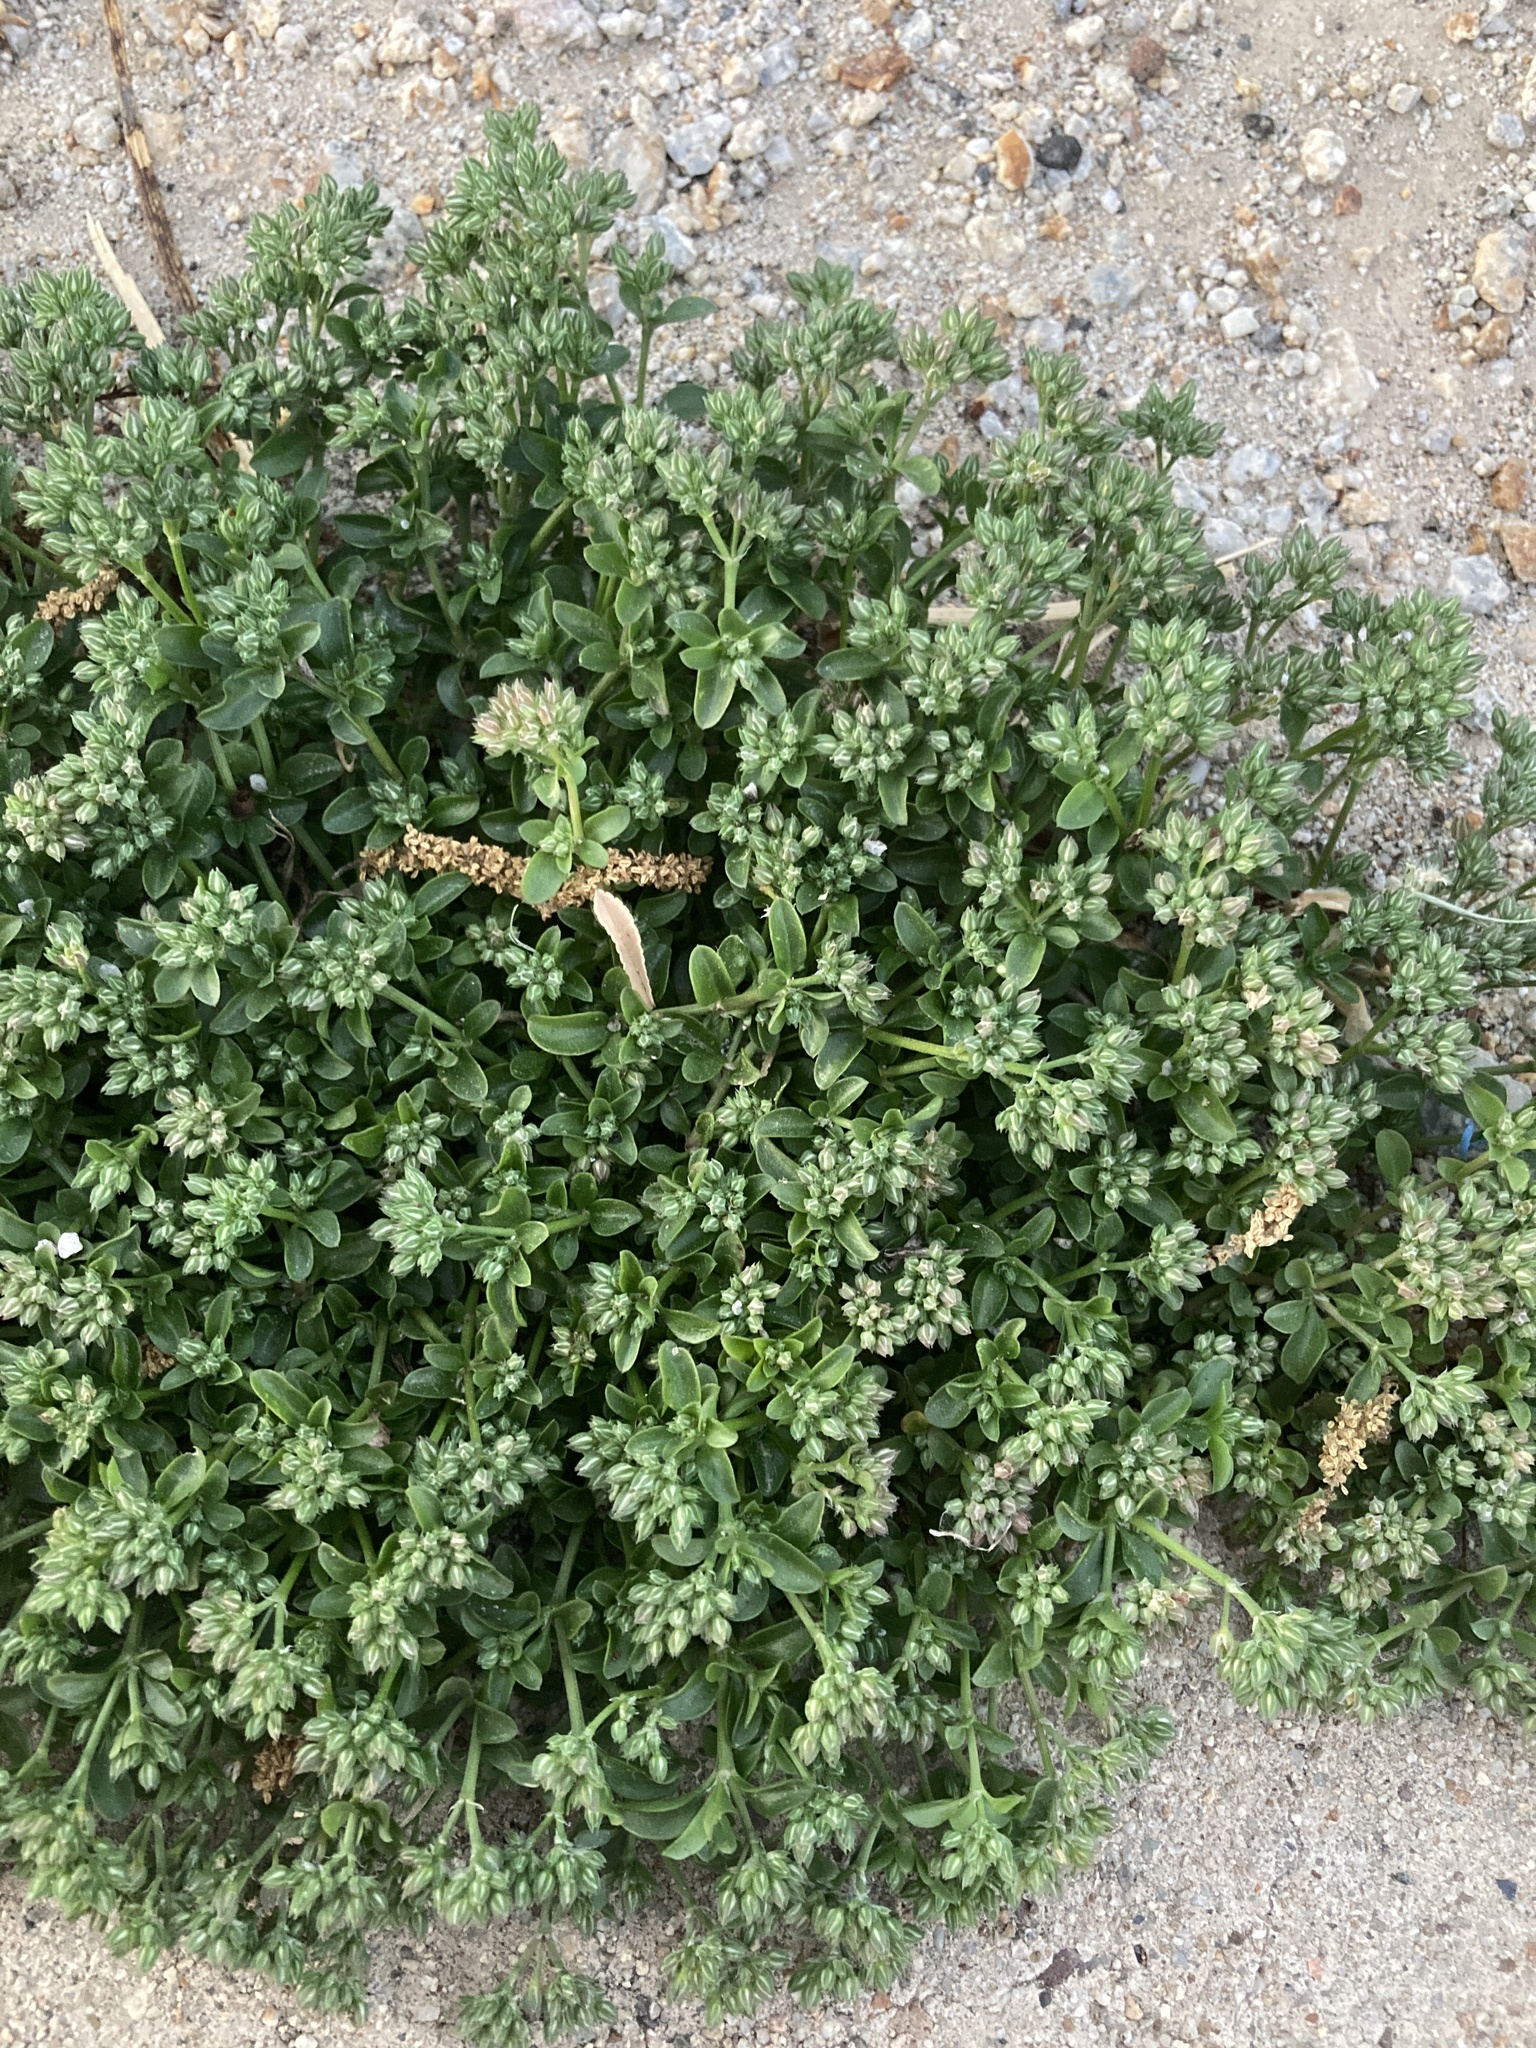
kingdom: Plantae
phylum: Tracheophyta
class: Magnoliopsida
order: Caryophyllales
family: Caryophyllaceae
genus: Polycarpon
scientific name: Polycarpon tetraphyllum
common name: Four-leaved all-seed
